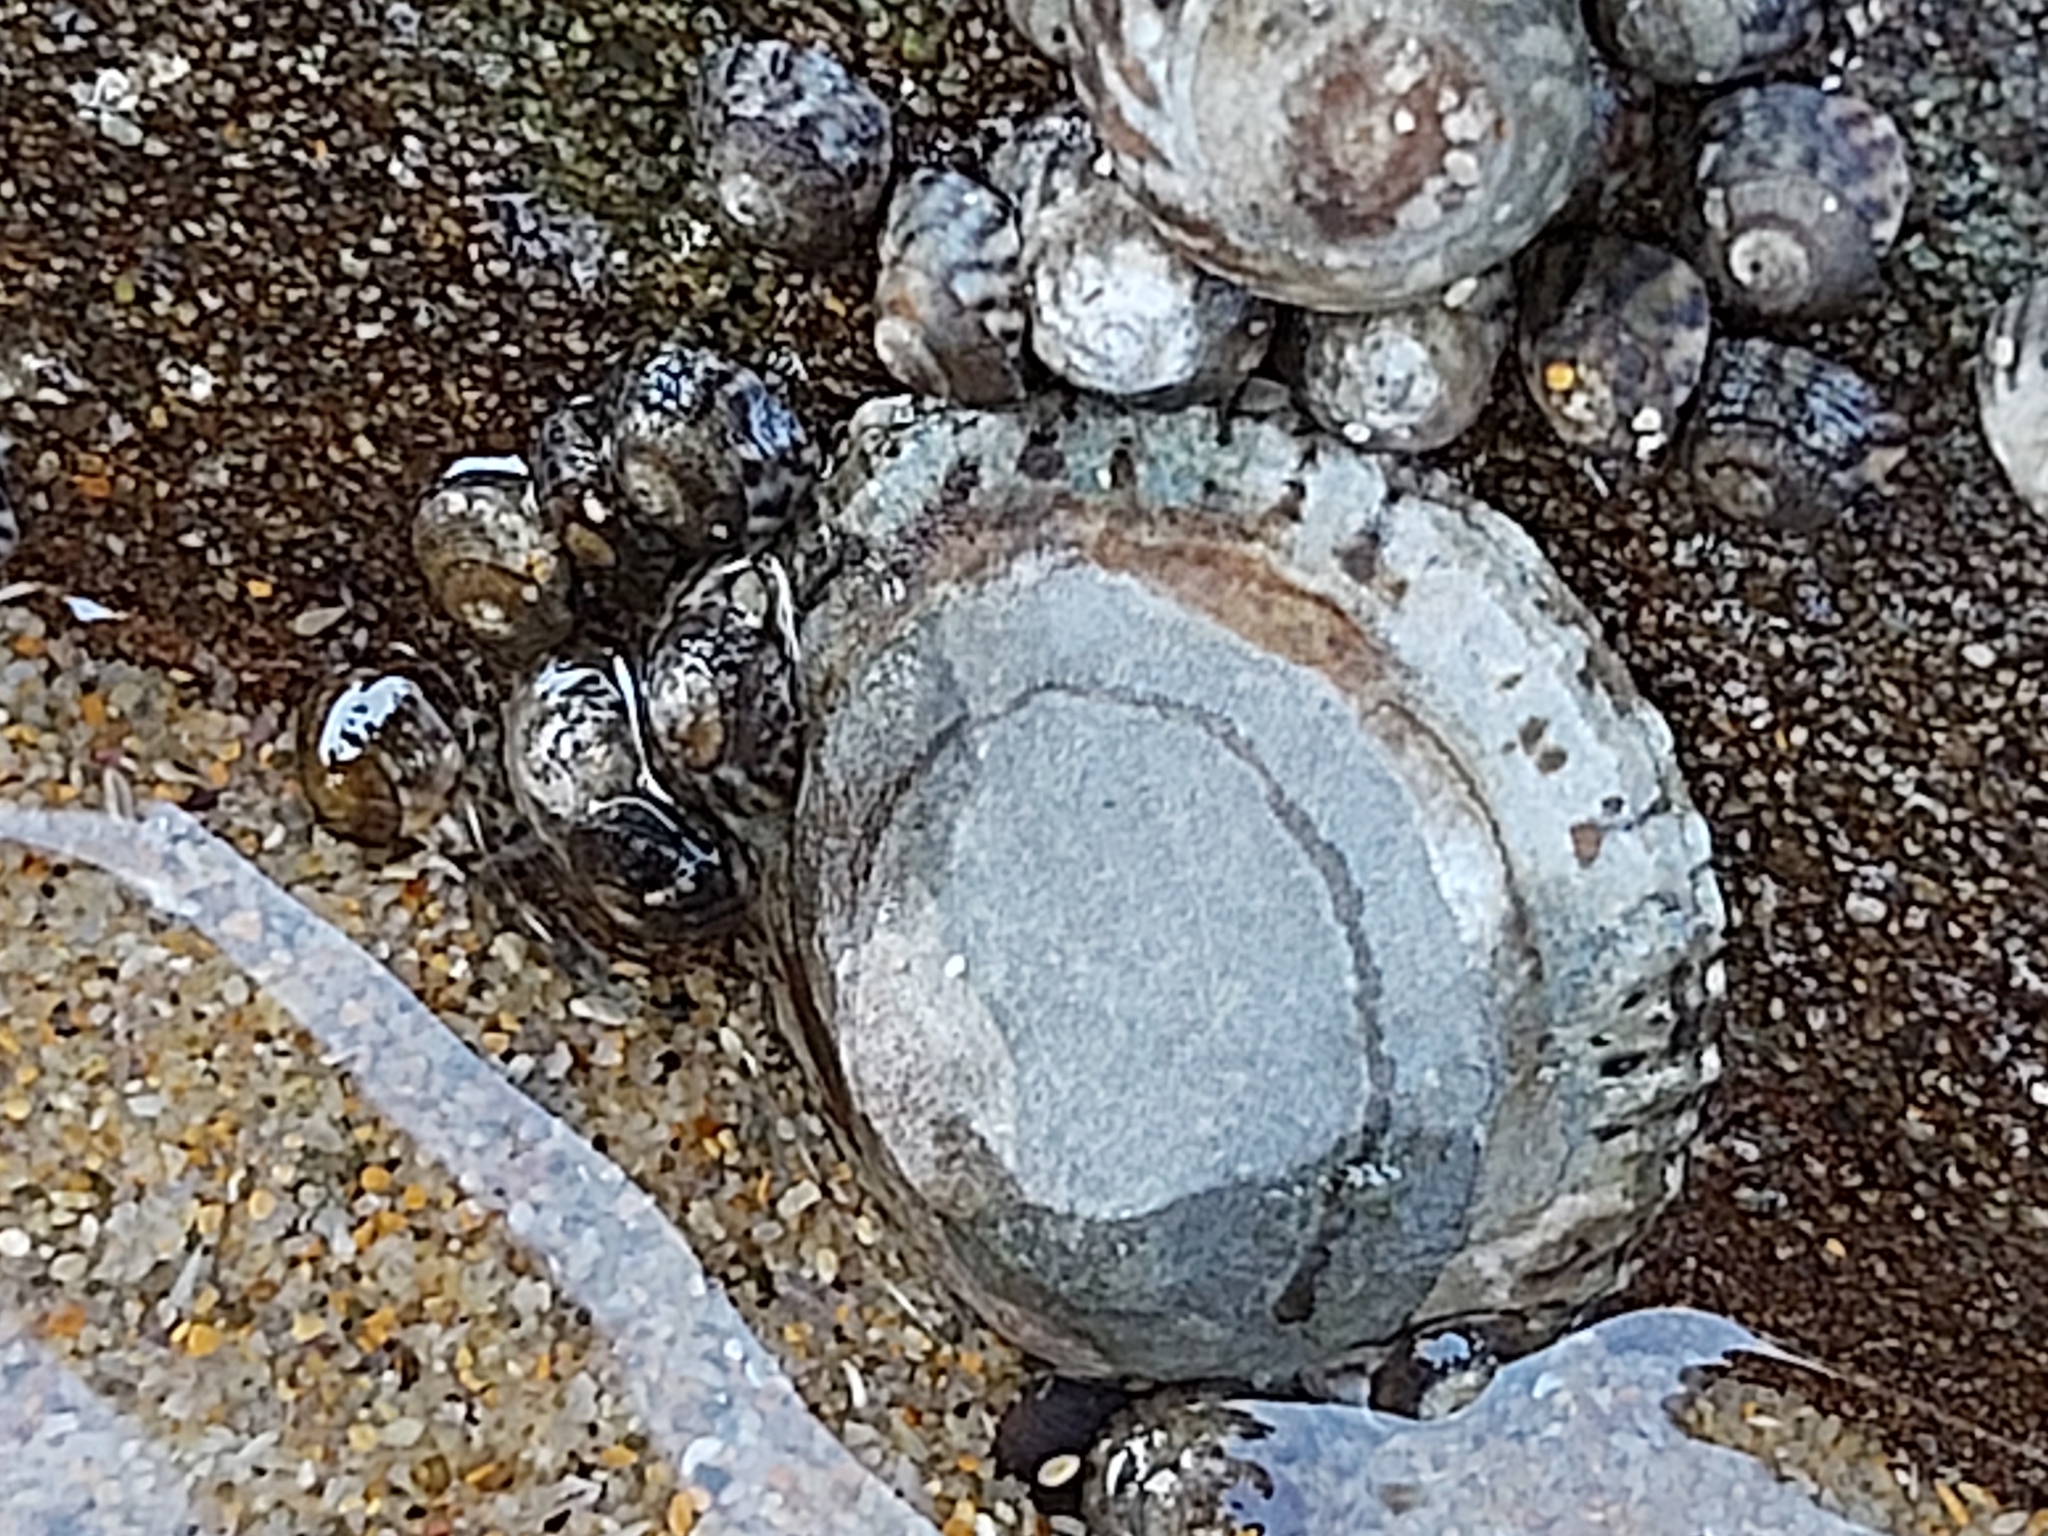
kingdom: Animalia
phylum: Mollusca
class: Gastropoda
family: Nacellidae
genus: Cellana
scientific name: Cellana tramoserica
